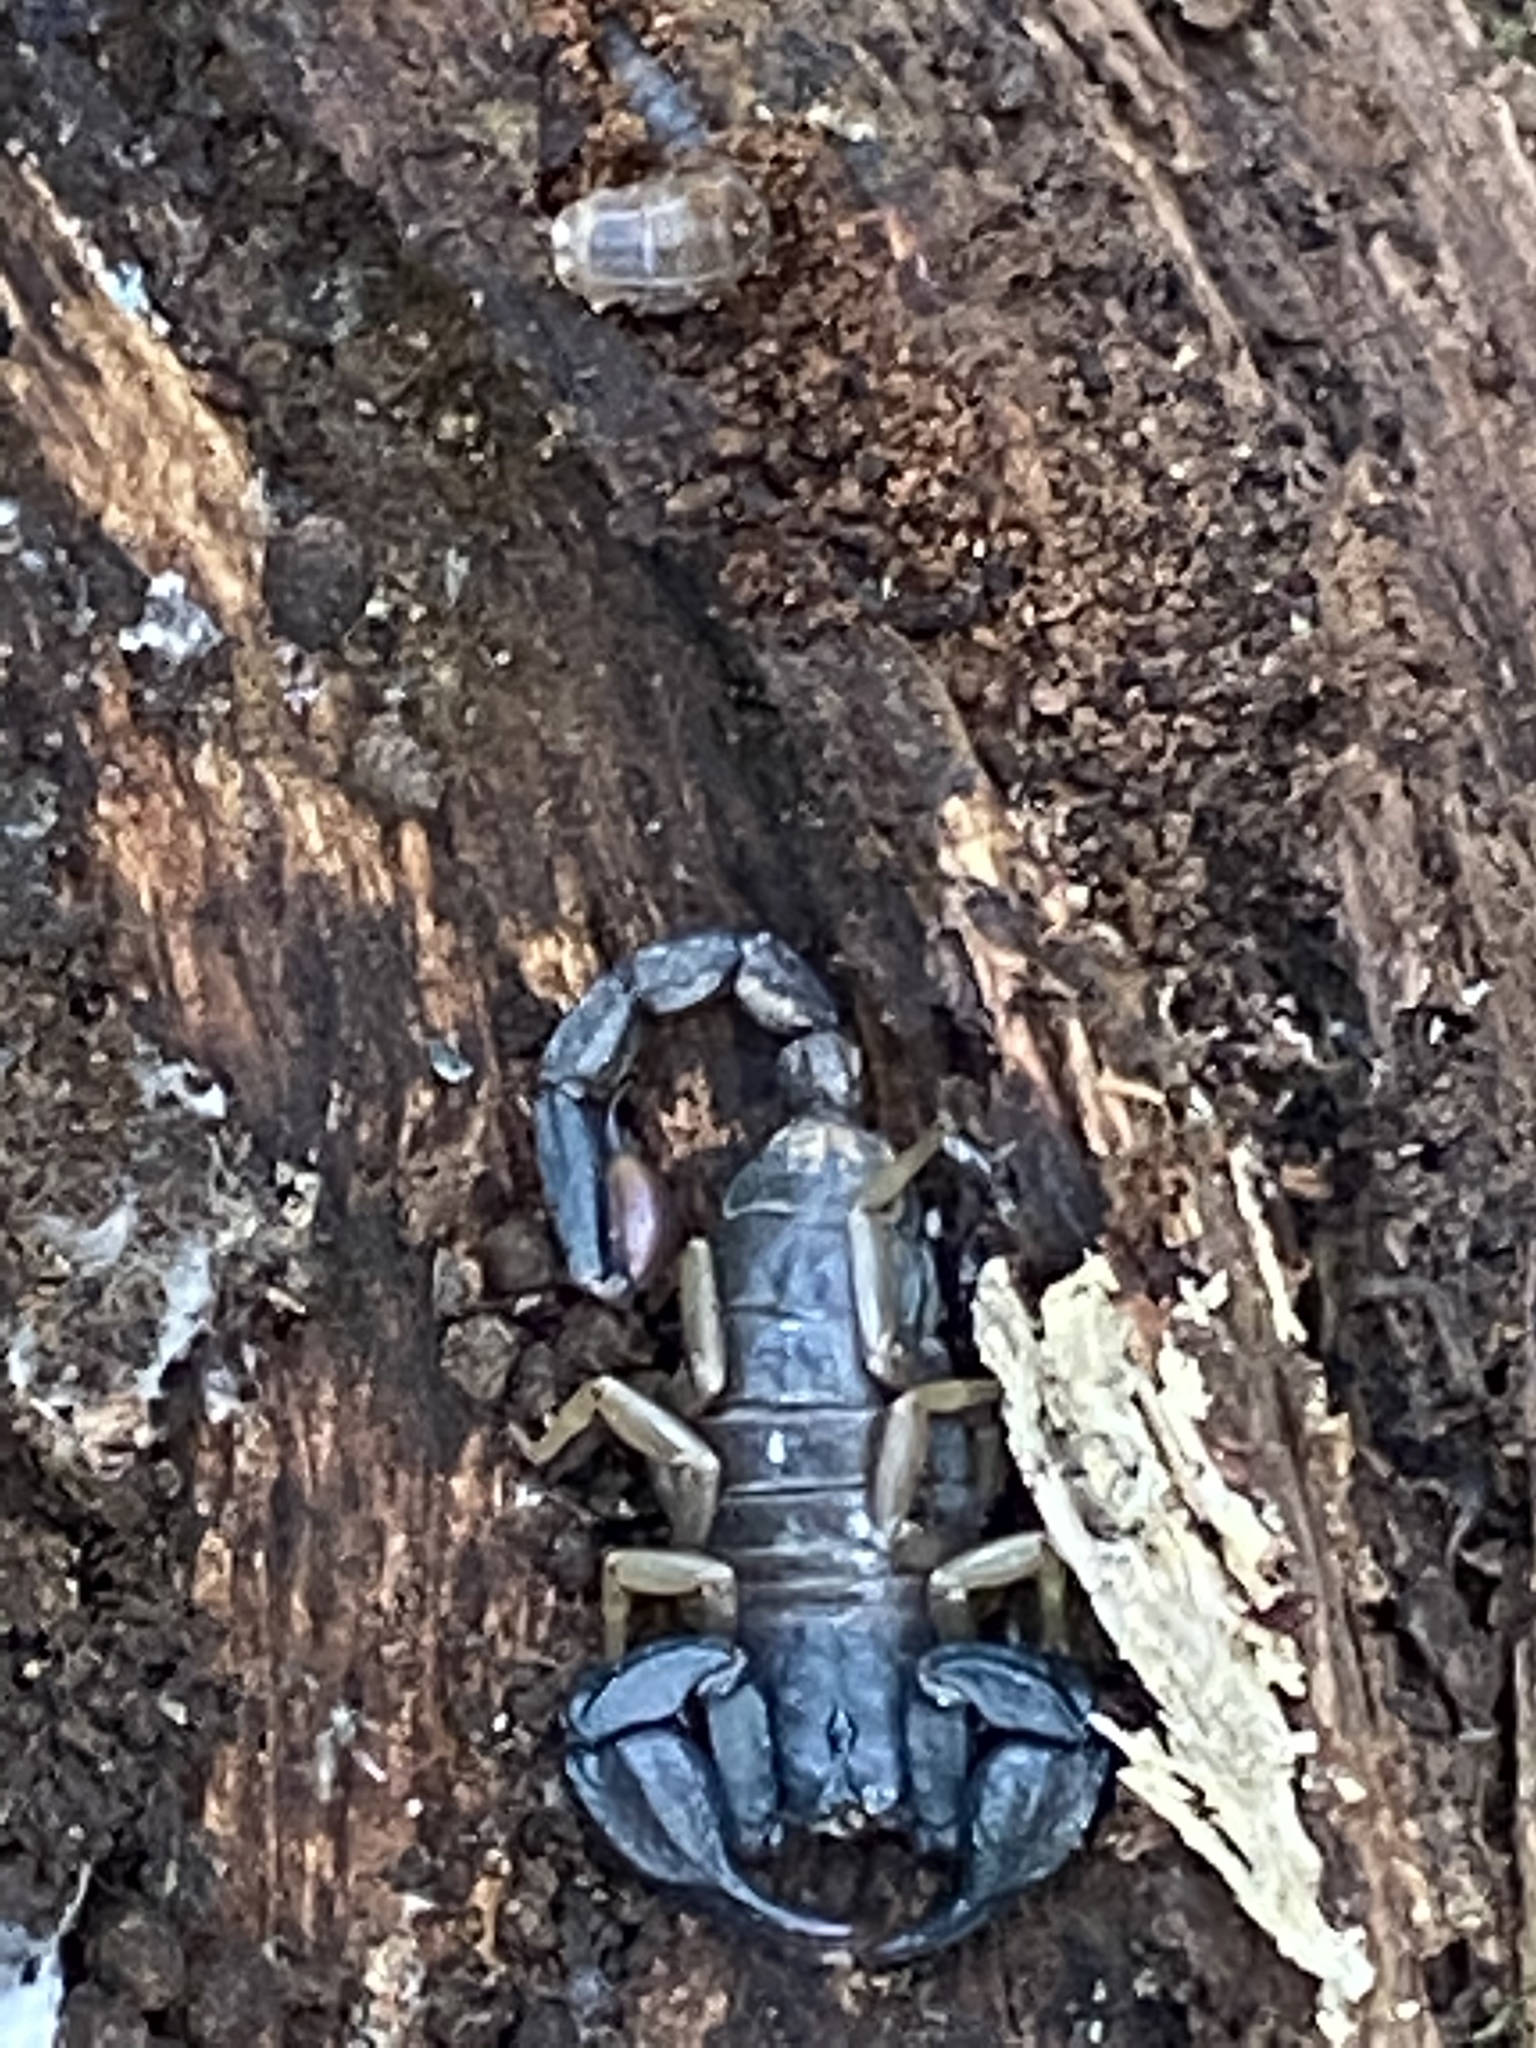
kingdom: Animalia
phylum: Arthropoda
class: Arachnida
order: Scorpiones
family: Chactidae
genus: Uroctonus
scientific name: Uroctonus mordax
